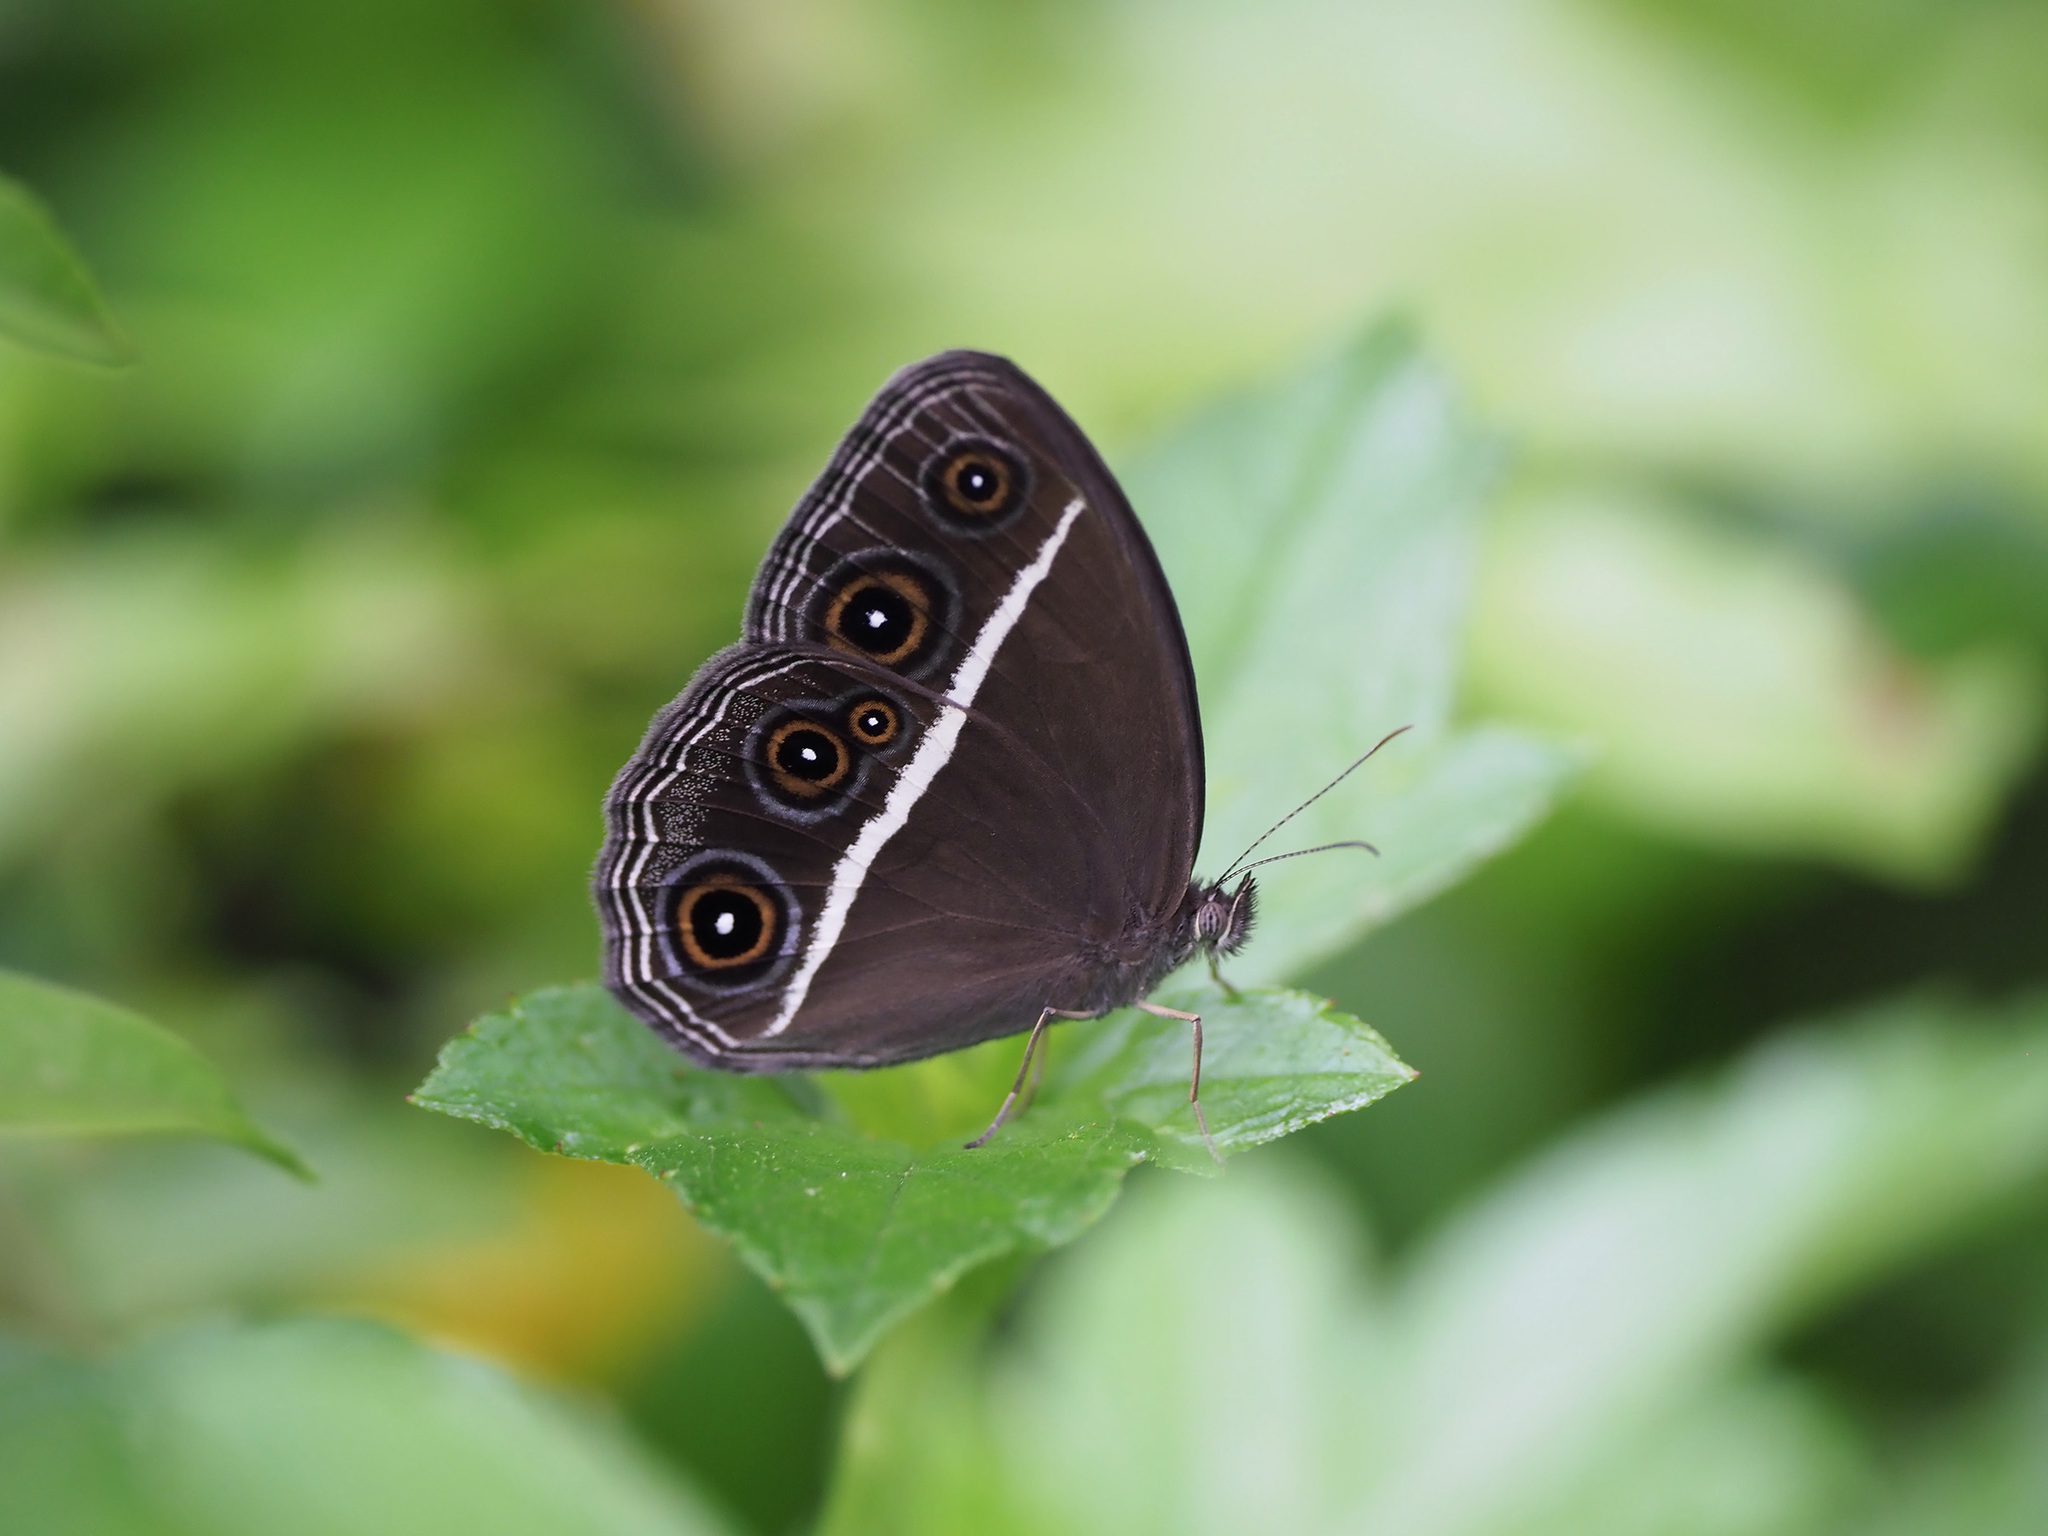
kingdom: Animalia
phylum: Arthropoda
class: Insecta
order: Lepidoptera
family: Nymphalidae
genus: Orsotriaena
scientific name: Orsotriaena medus
